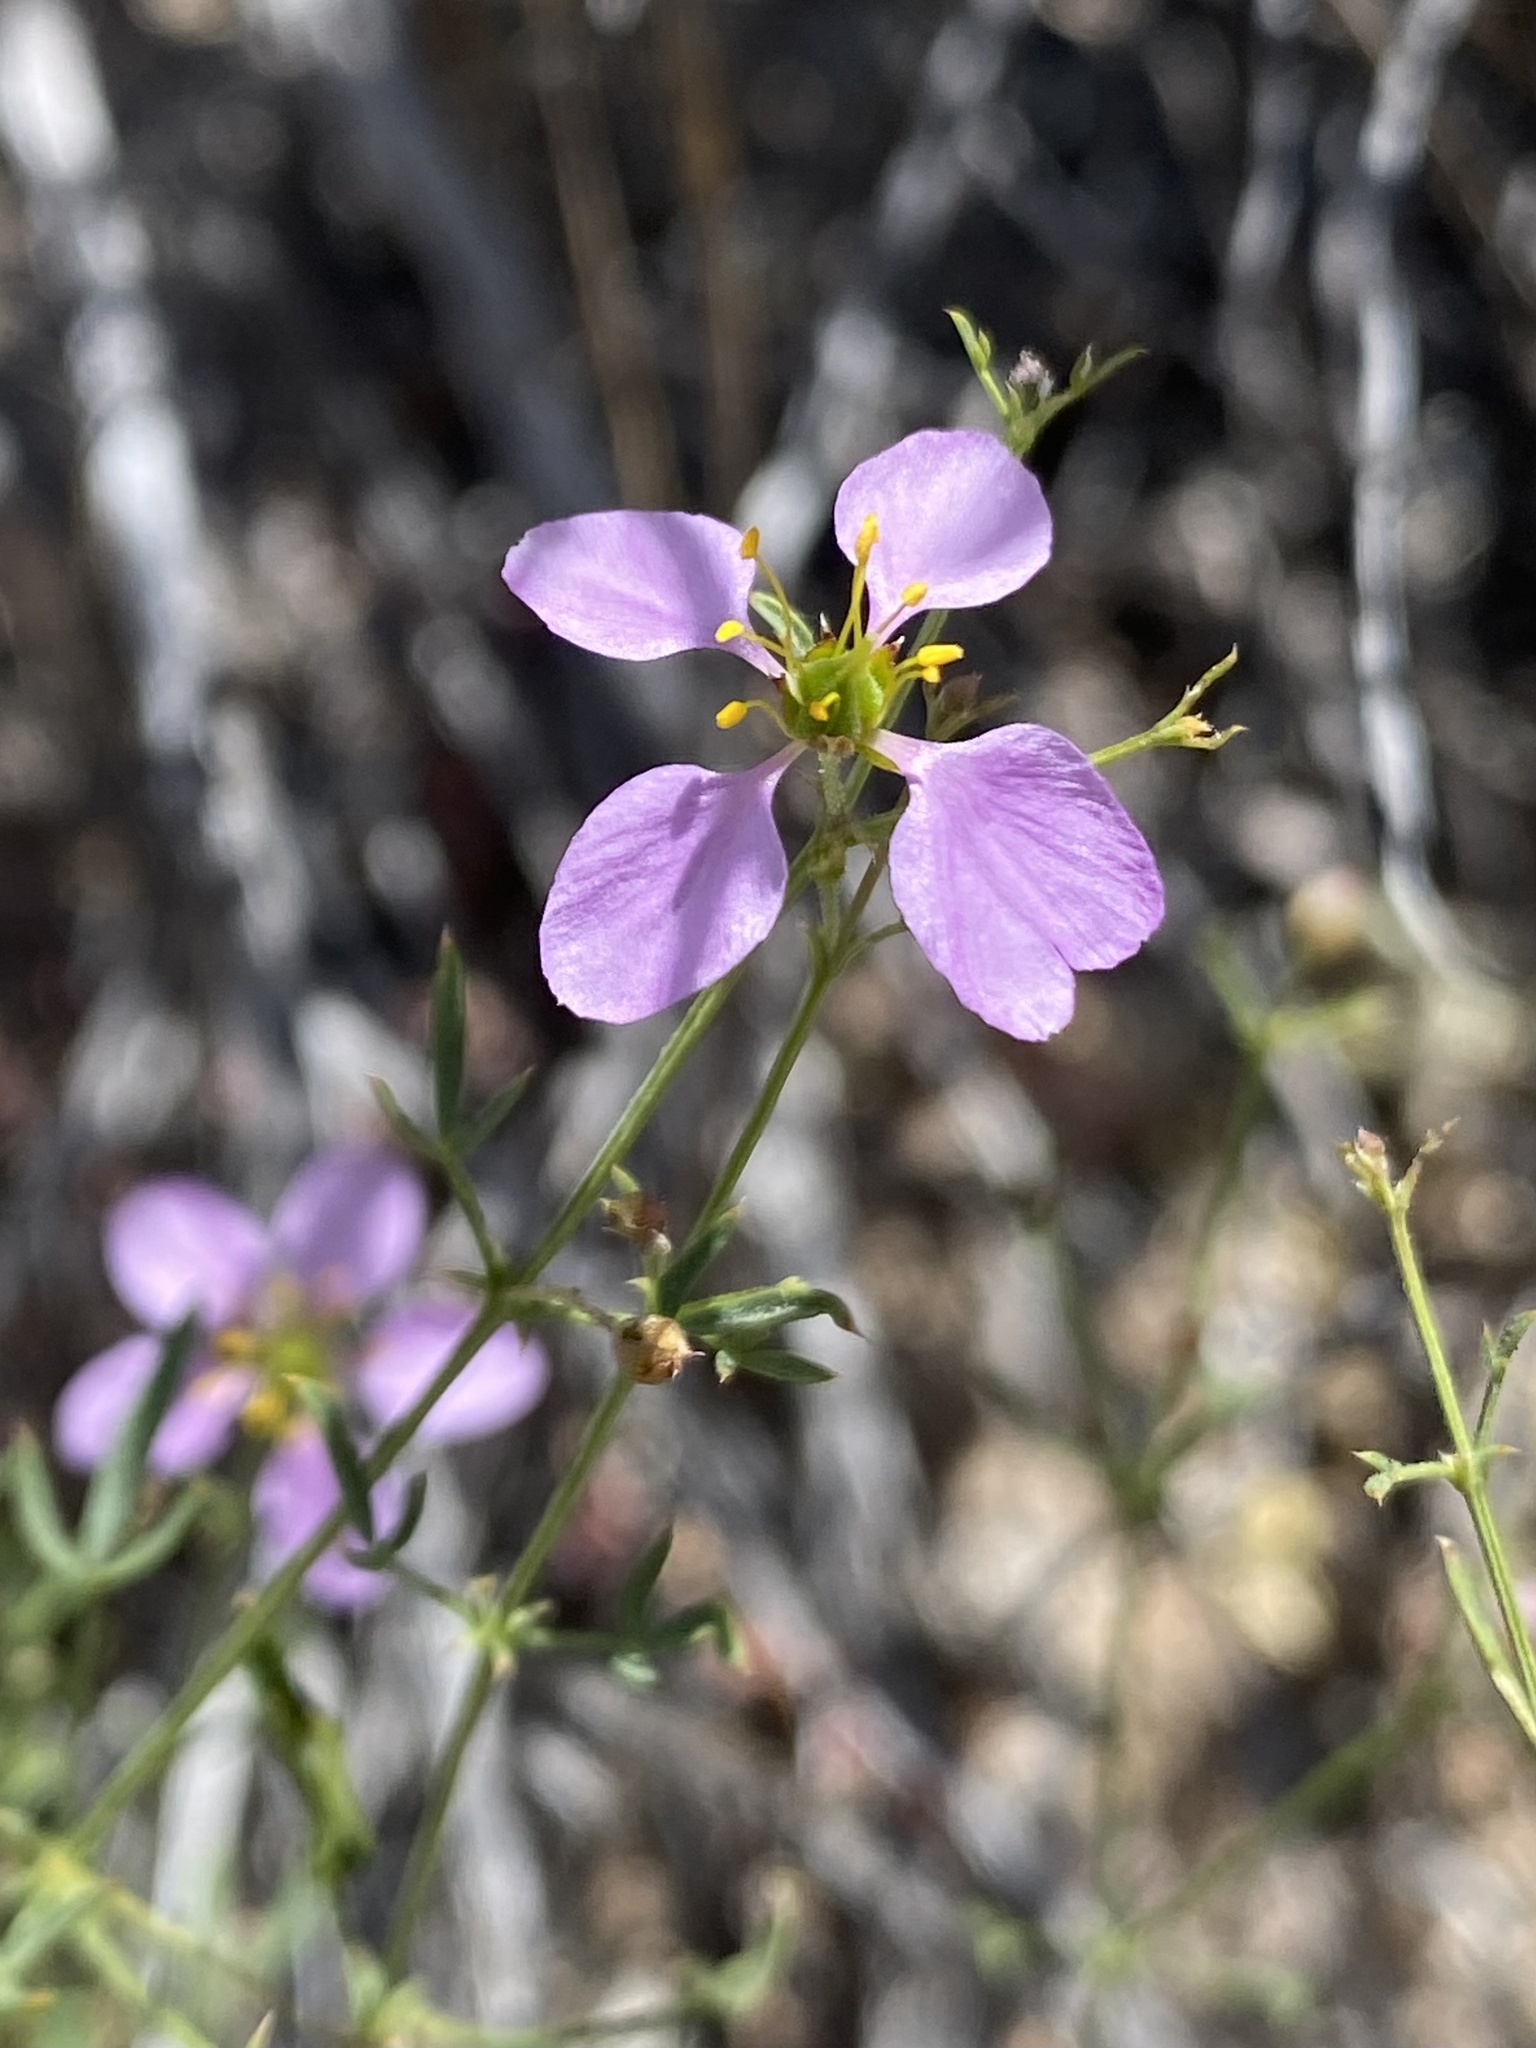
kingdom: Plantae
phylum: Tracheophyta
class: Magnoliopsida
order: Zygophyllales
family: Zygophyllaceae
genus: Fagonia
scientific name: Fagonia laevis
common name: California fagonbush
